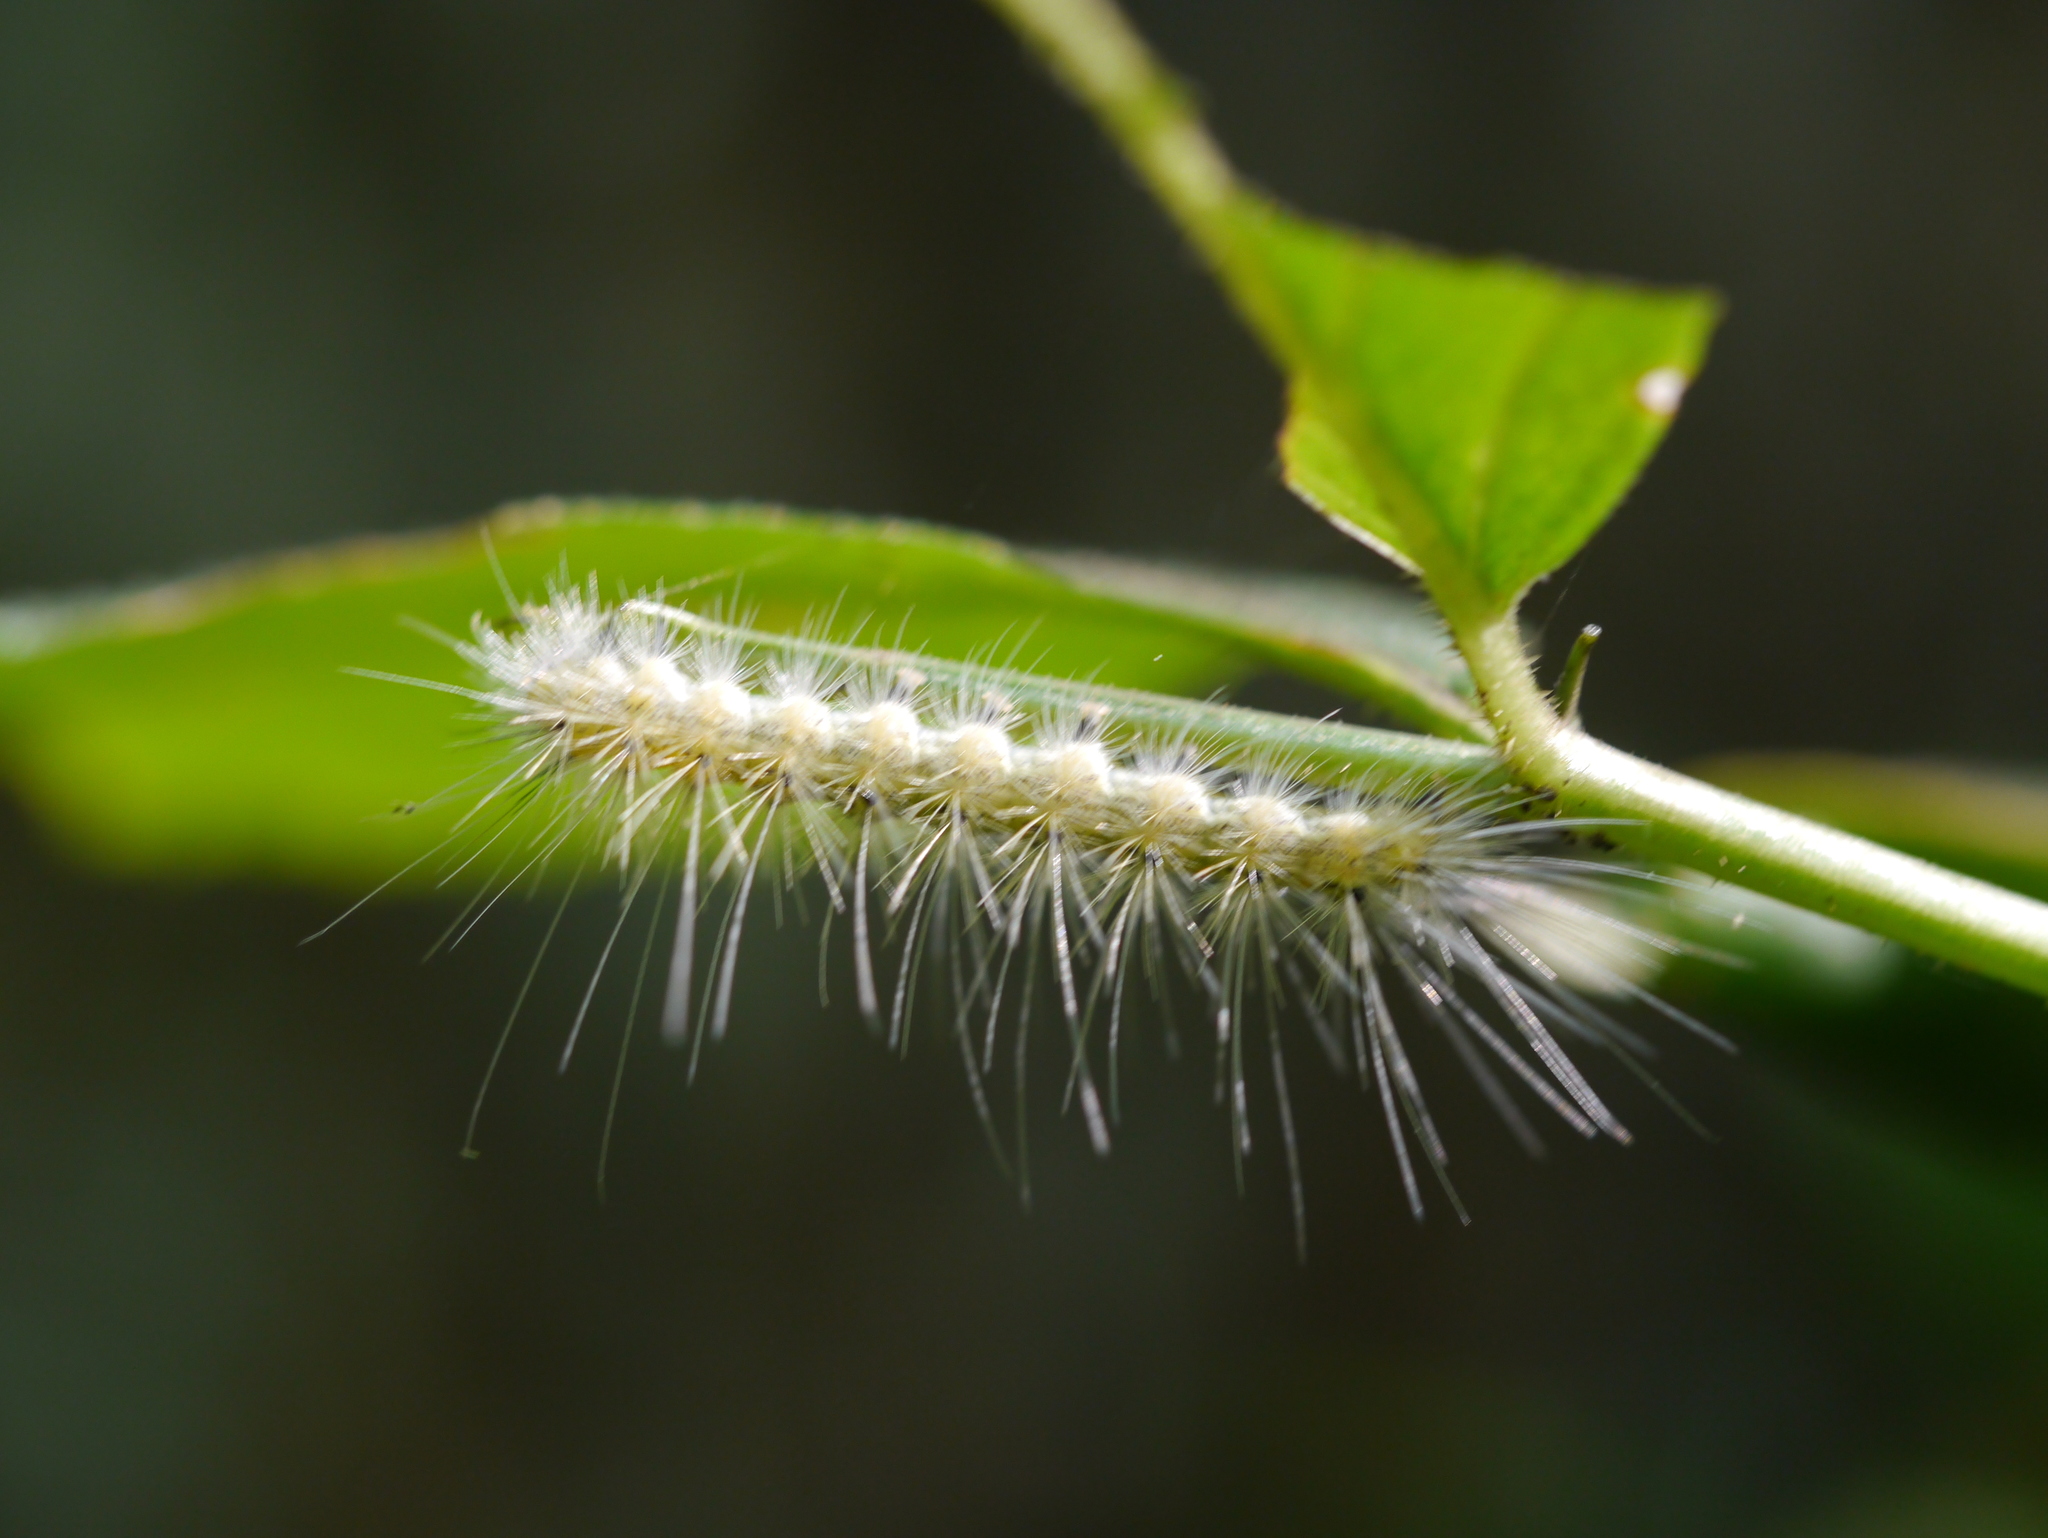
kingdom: Animalia
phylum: Arthropoda
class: Insecta
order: Lepidoptera
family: Erebidae
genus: Hyphantria
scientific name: Hyphantria cunea
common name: American white moth
